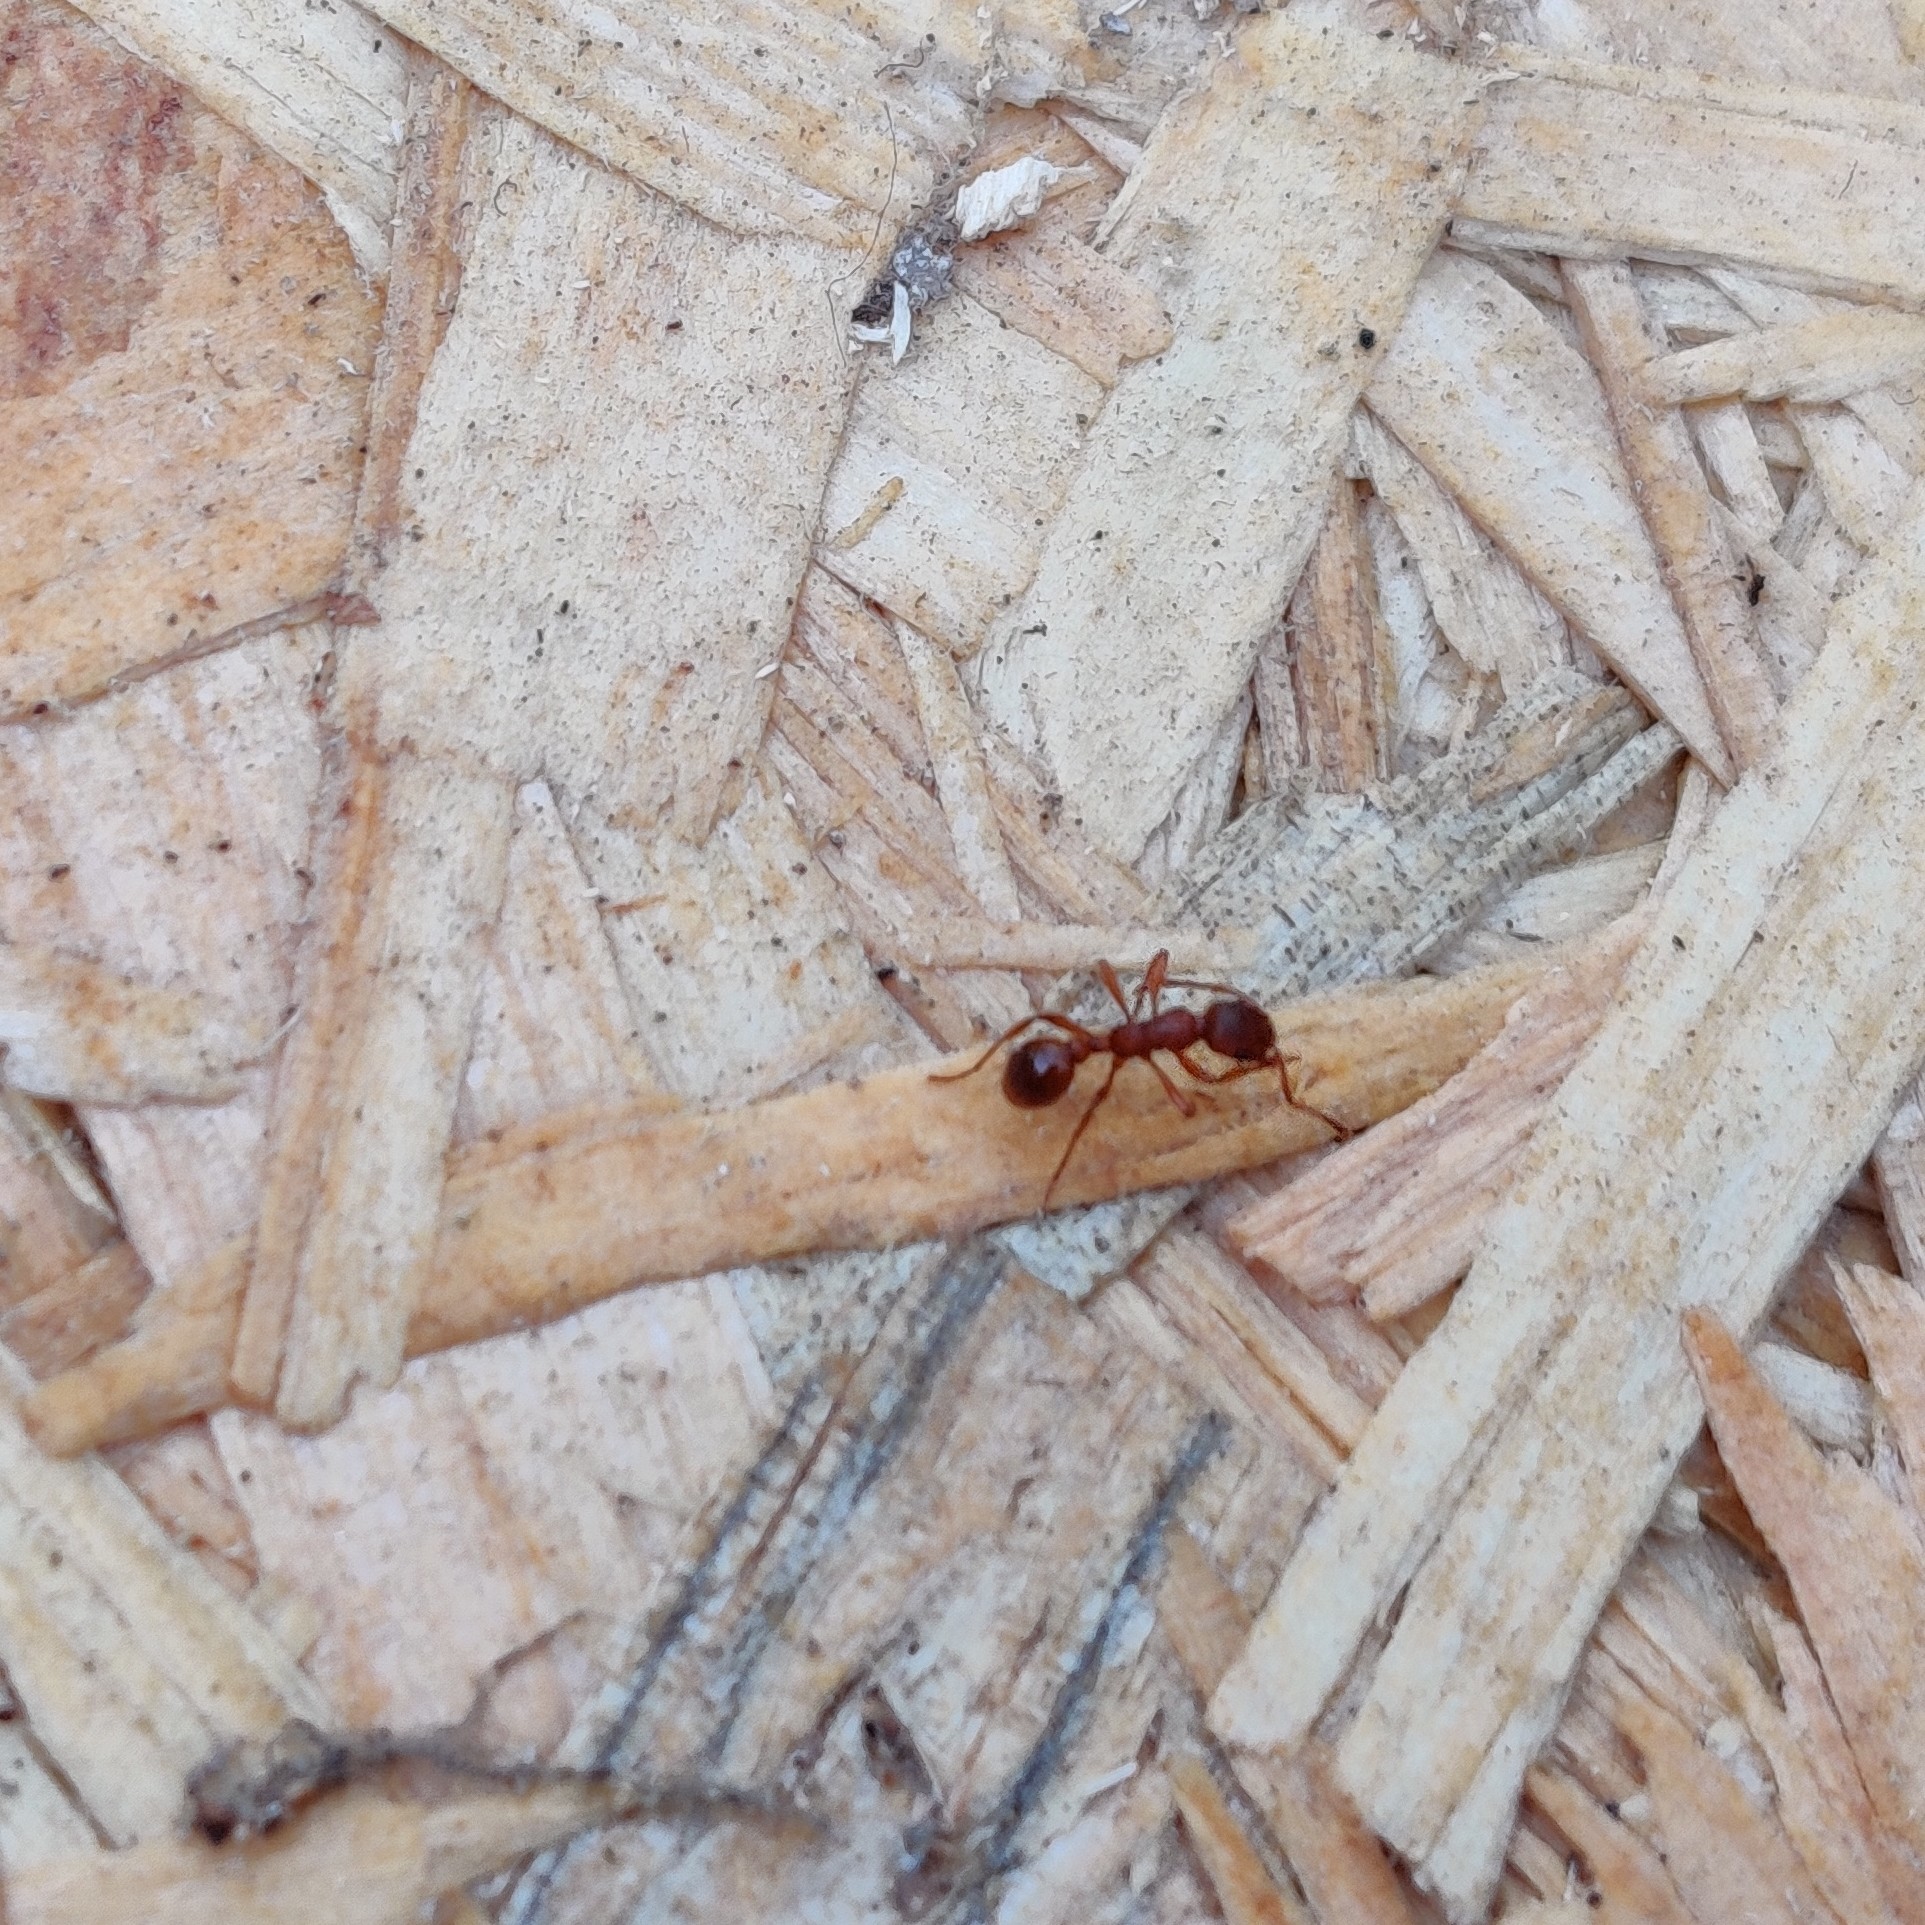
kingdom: Animalia
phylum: Arthropoda
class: Insecta
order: Hymenoptera
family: Formicidae
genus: Myrmica
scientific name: Myrmica
